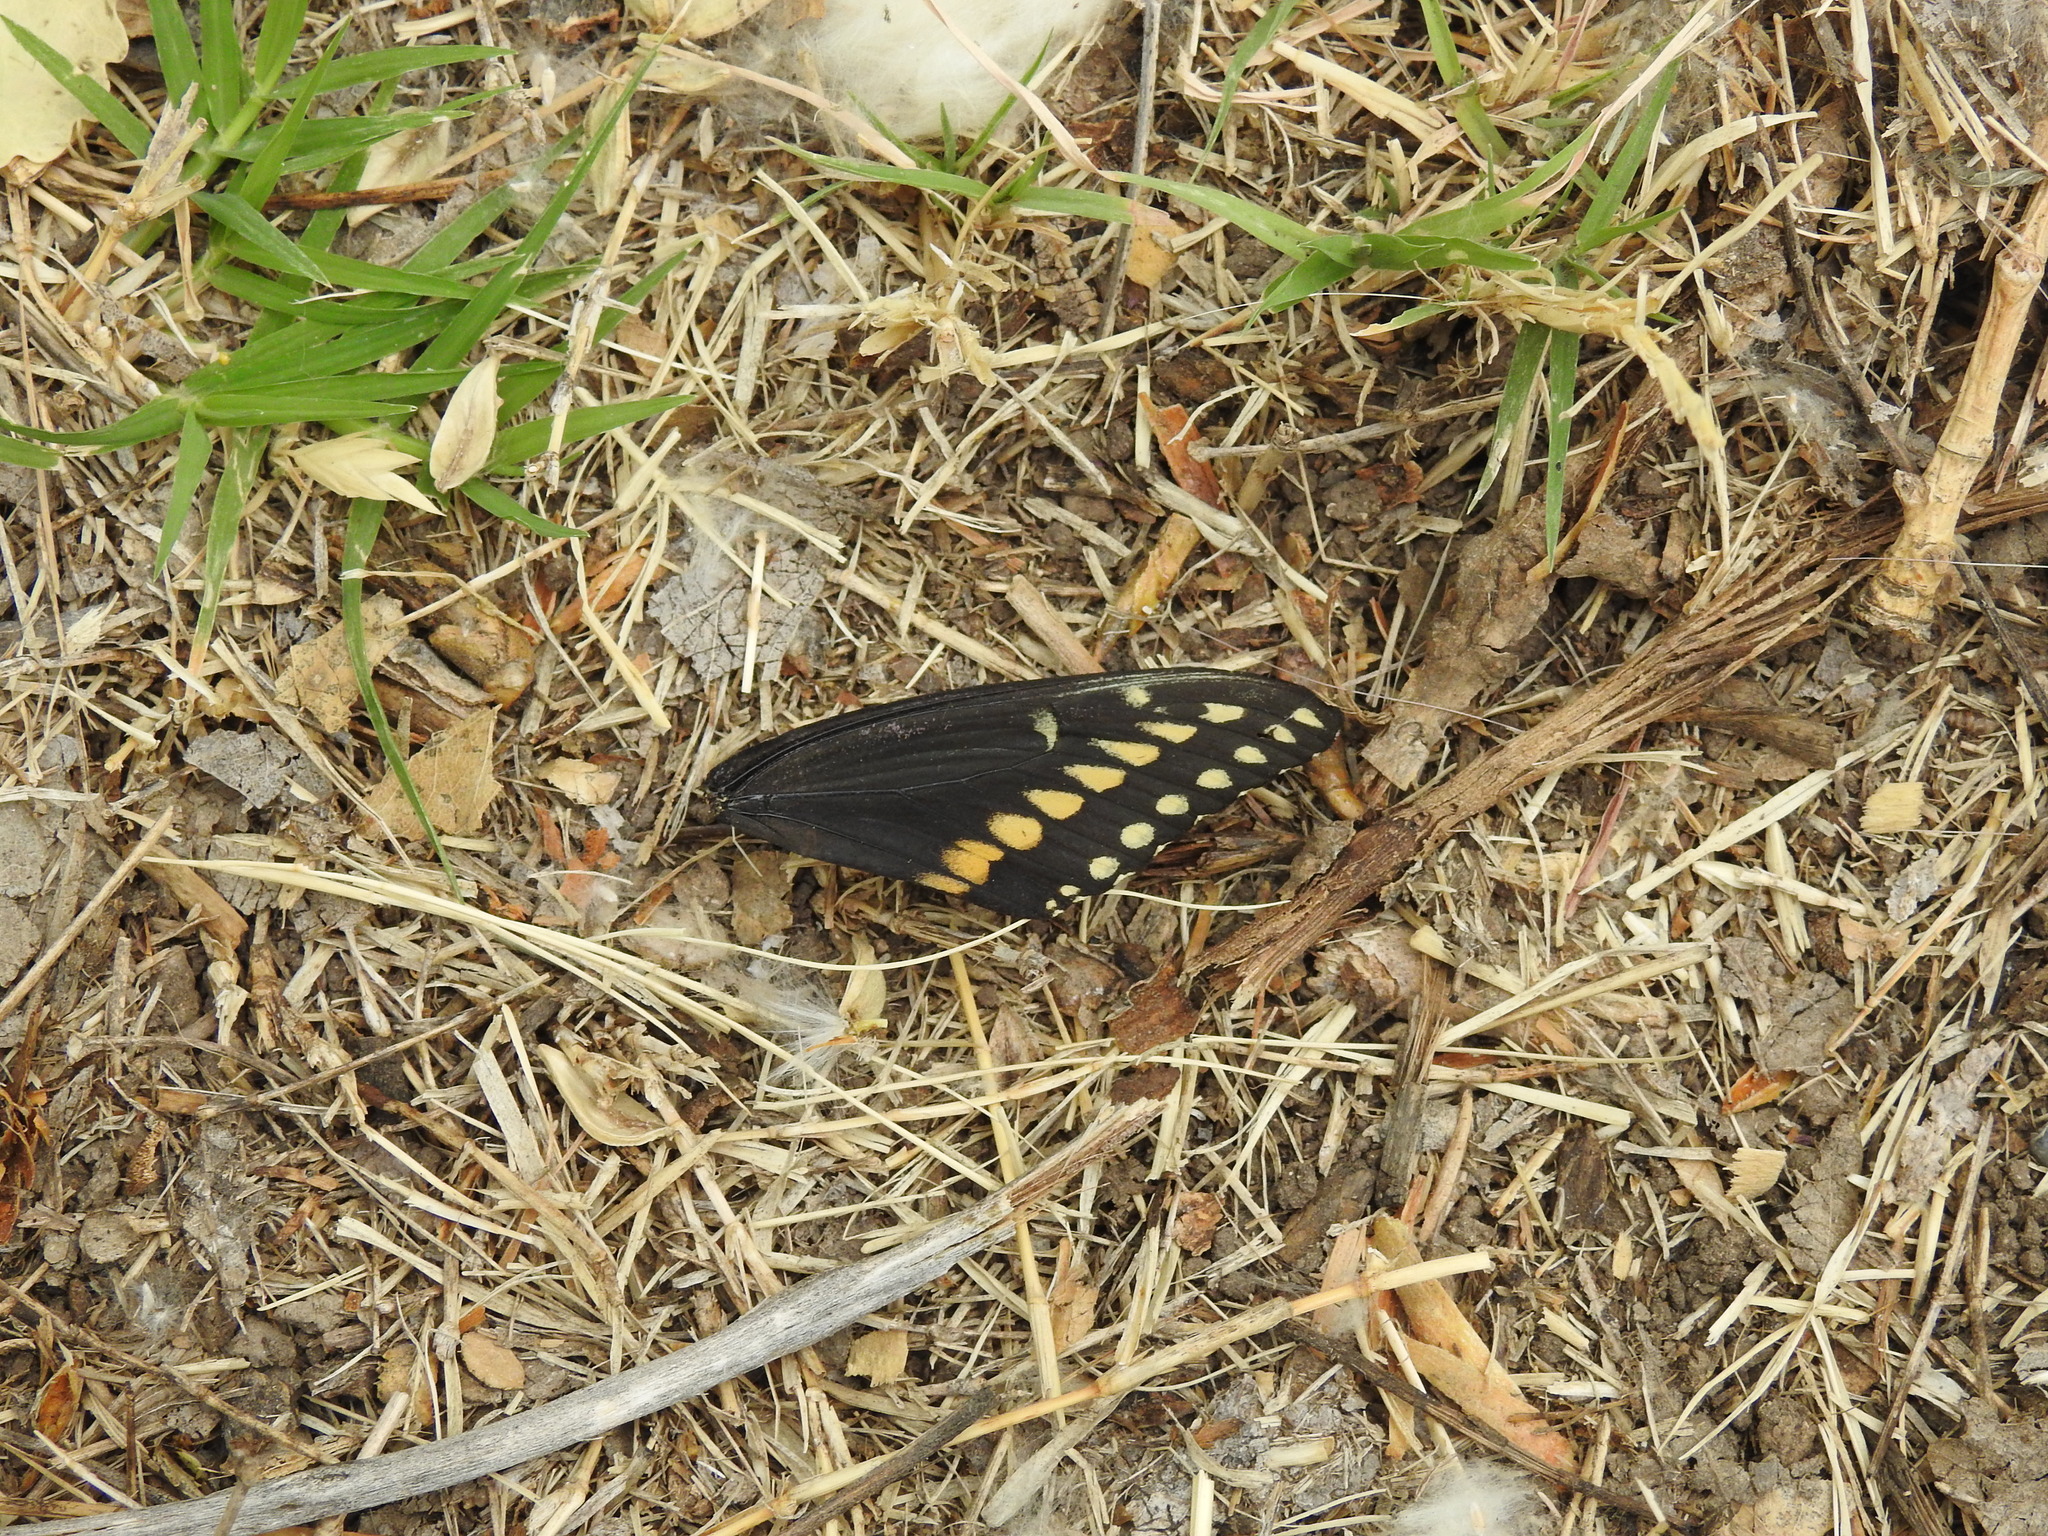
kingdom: Animalia
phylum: Arthropoda
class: Insecta
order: Lepidoptera
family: Papilionidae
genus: Papilio
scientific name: Papilio polyxenes
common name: Black swallowtail
